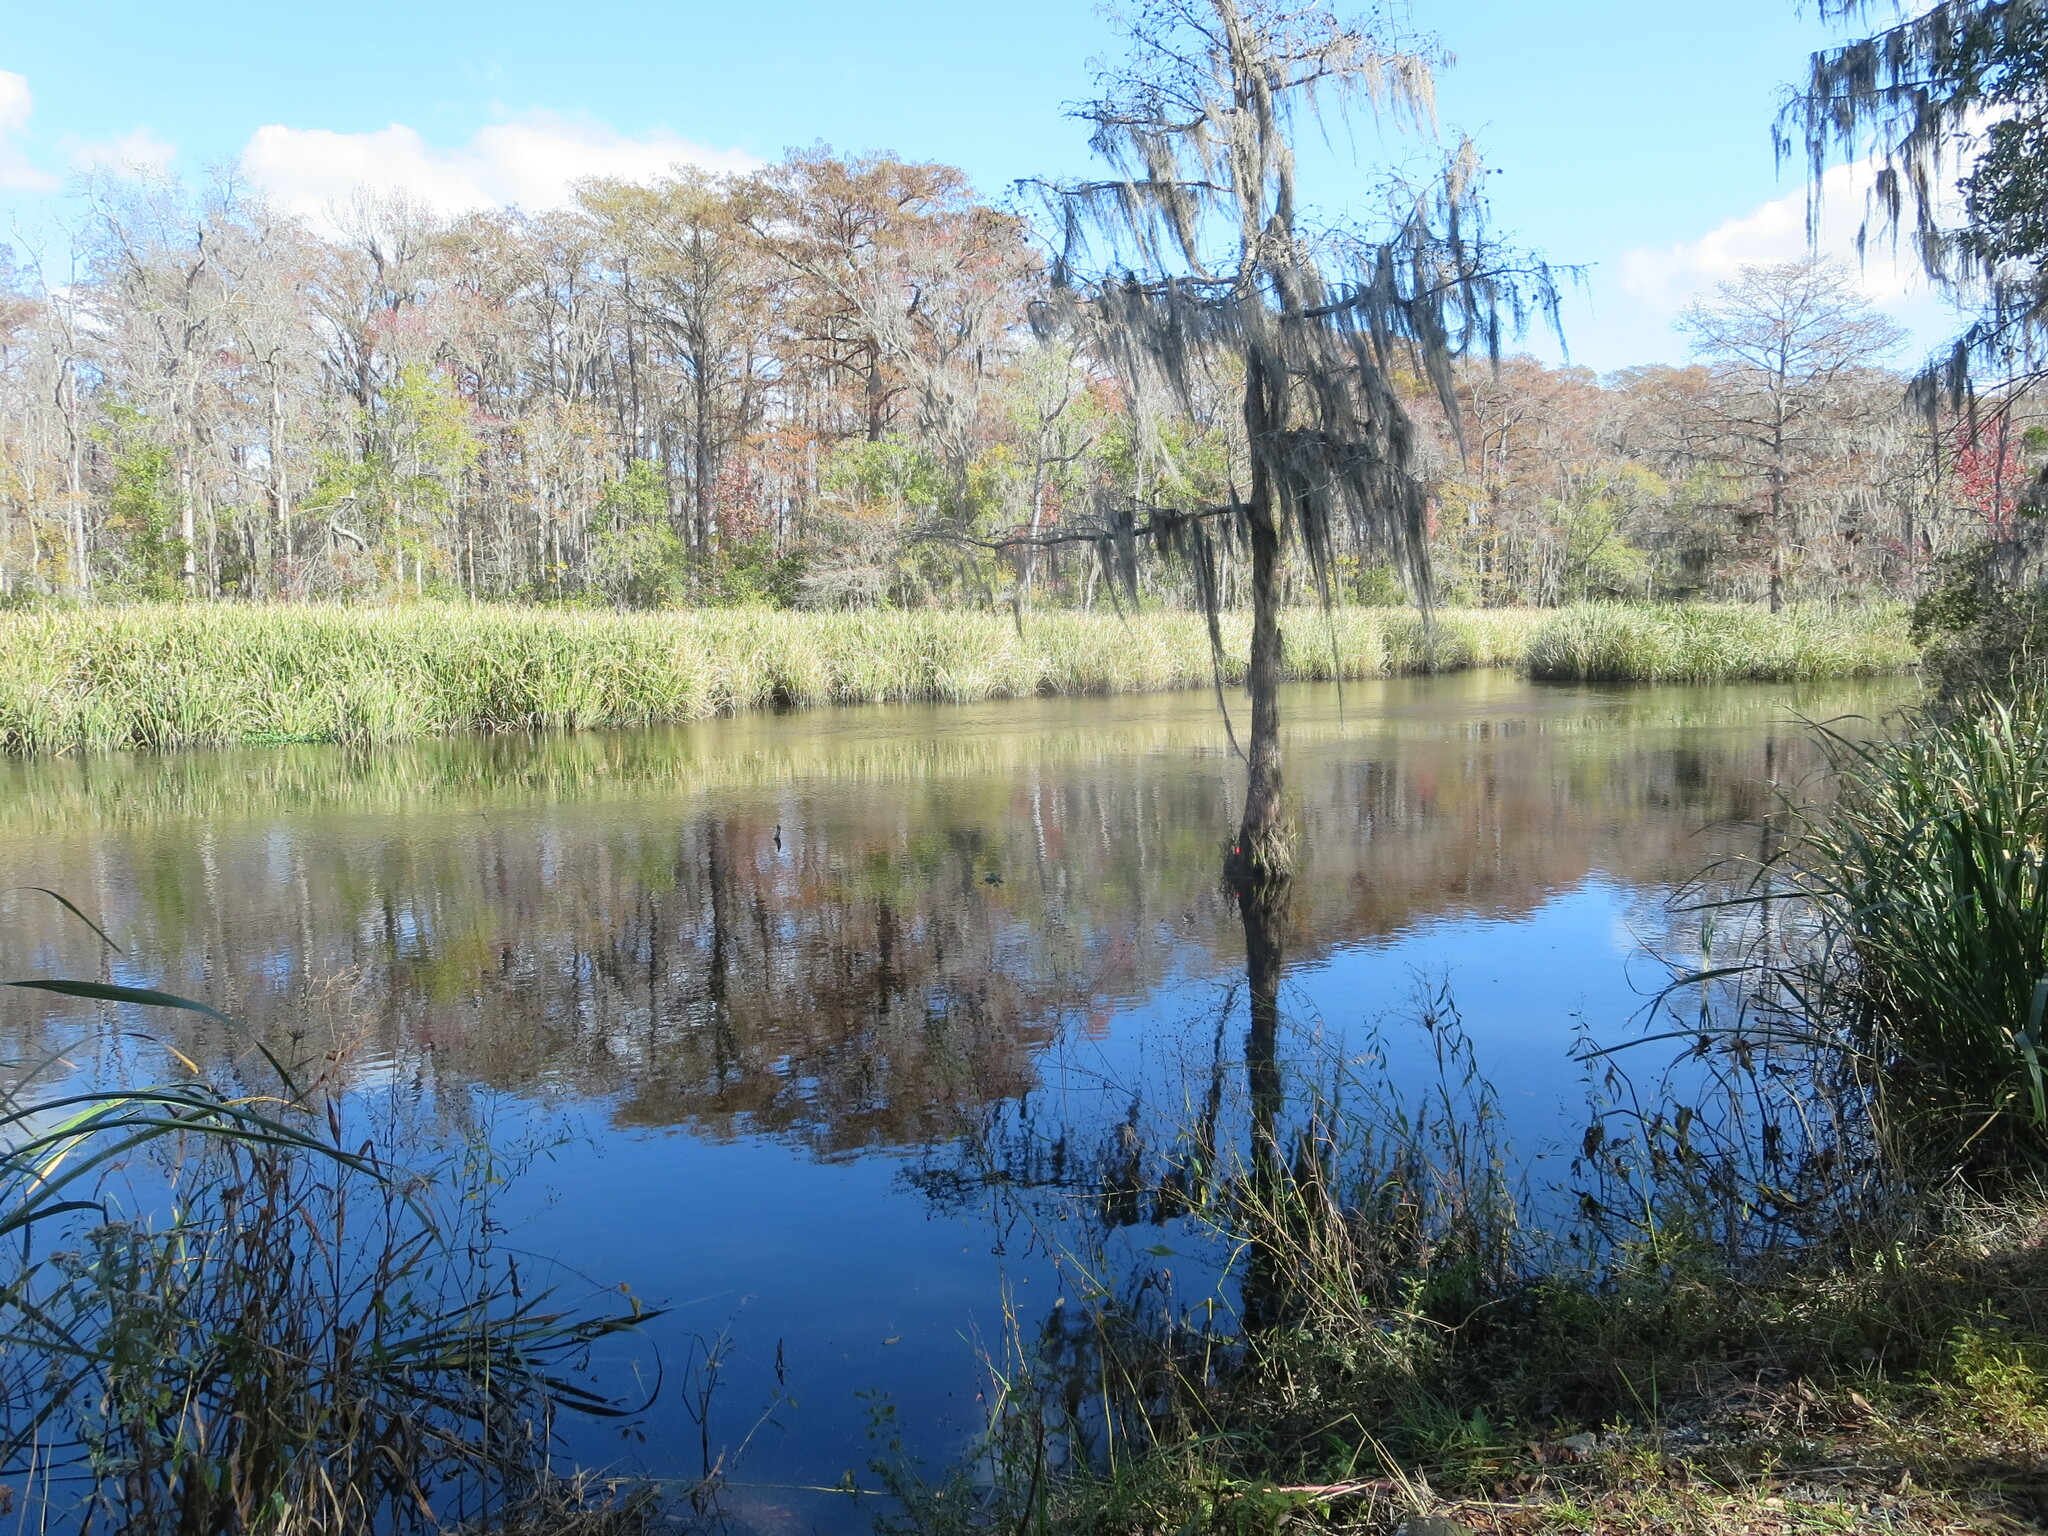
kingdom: Plantae
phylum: Tracheophyta
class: Liliopsida
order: Commelinales
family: Pontederiaceae
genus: Pontederia
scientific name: Pontederia crassipes
